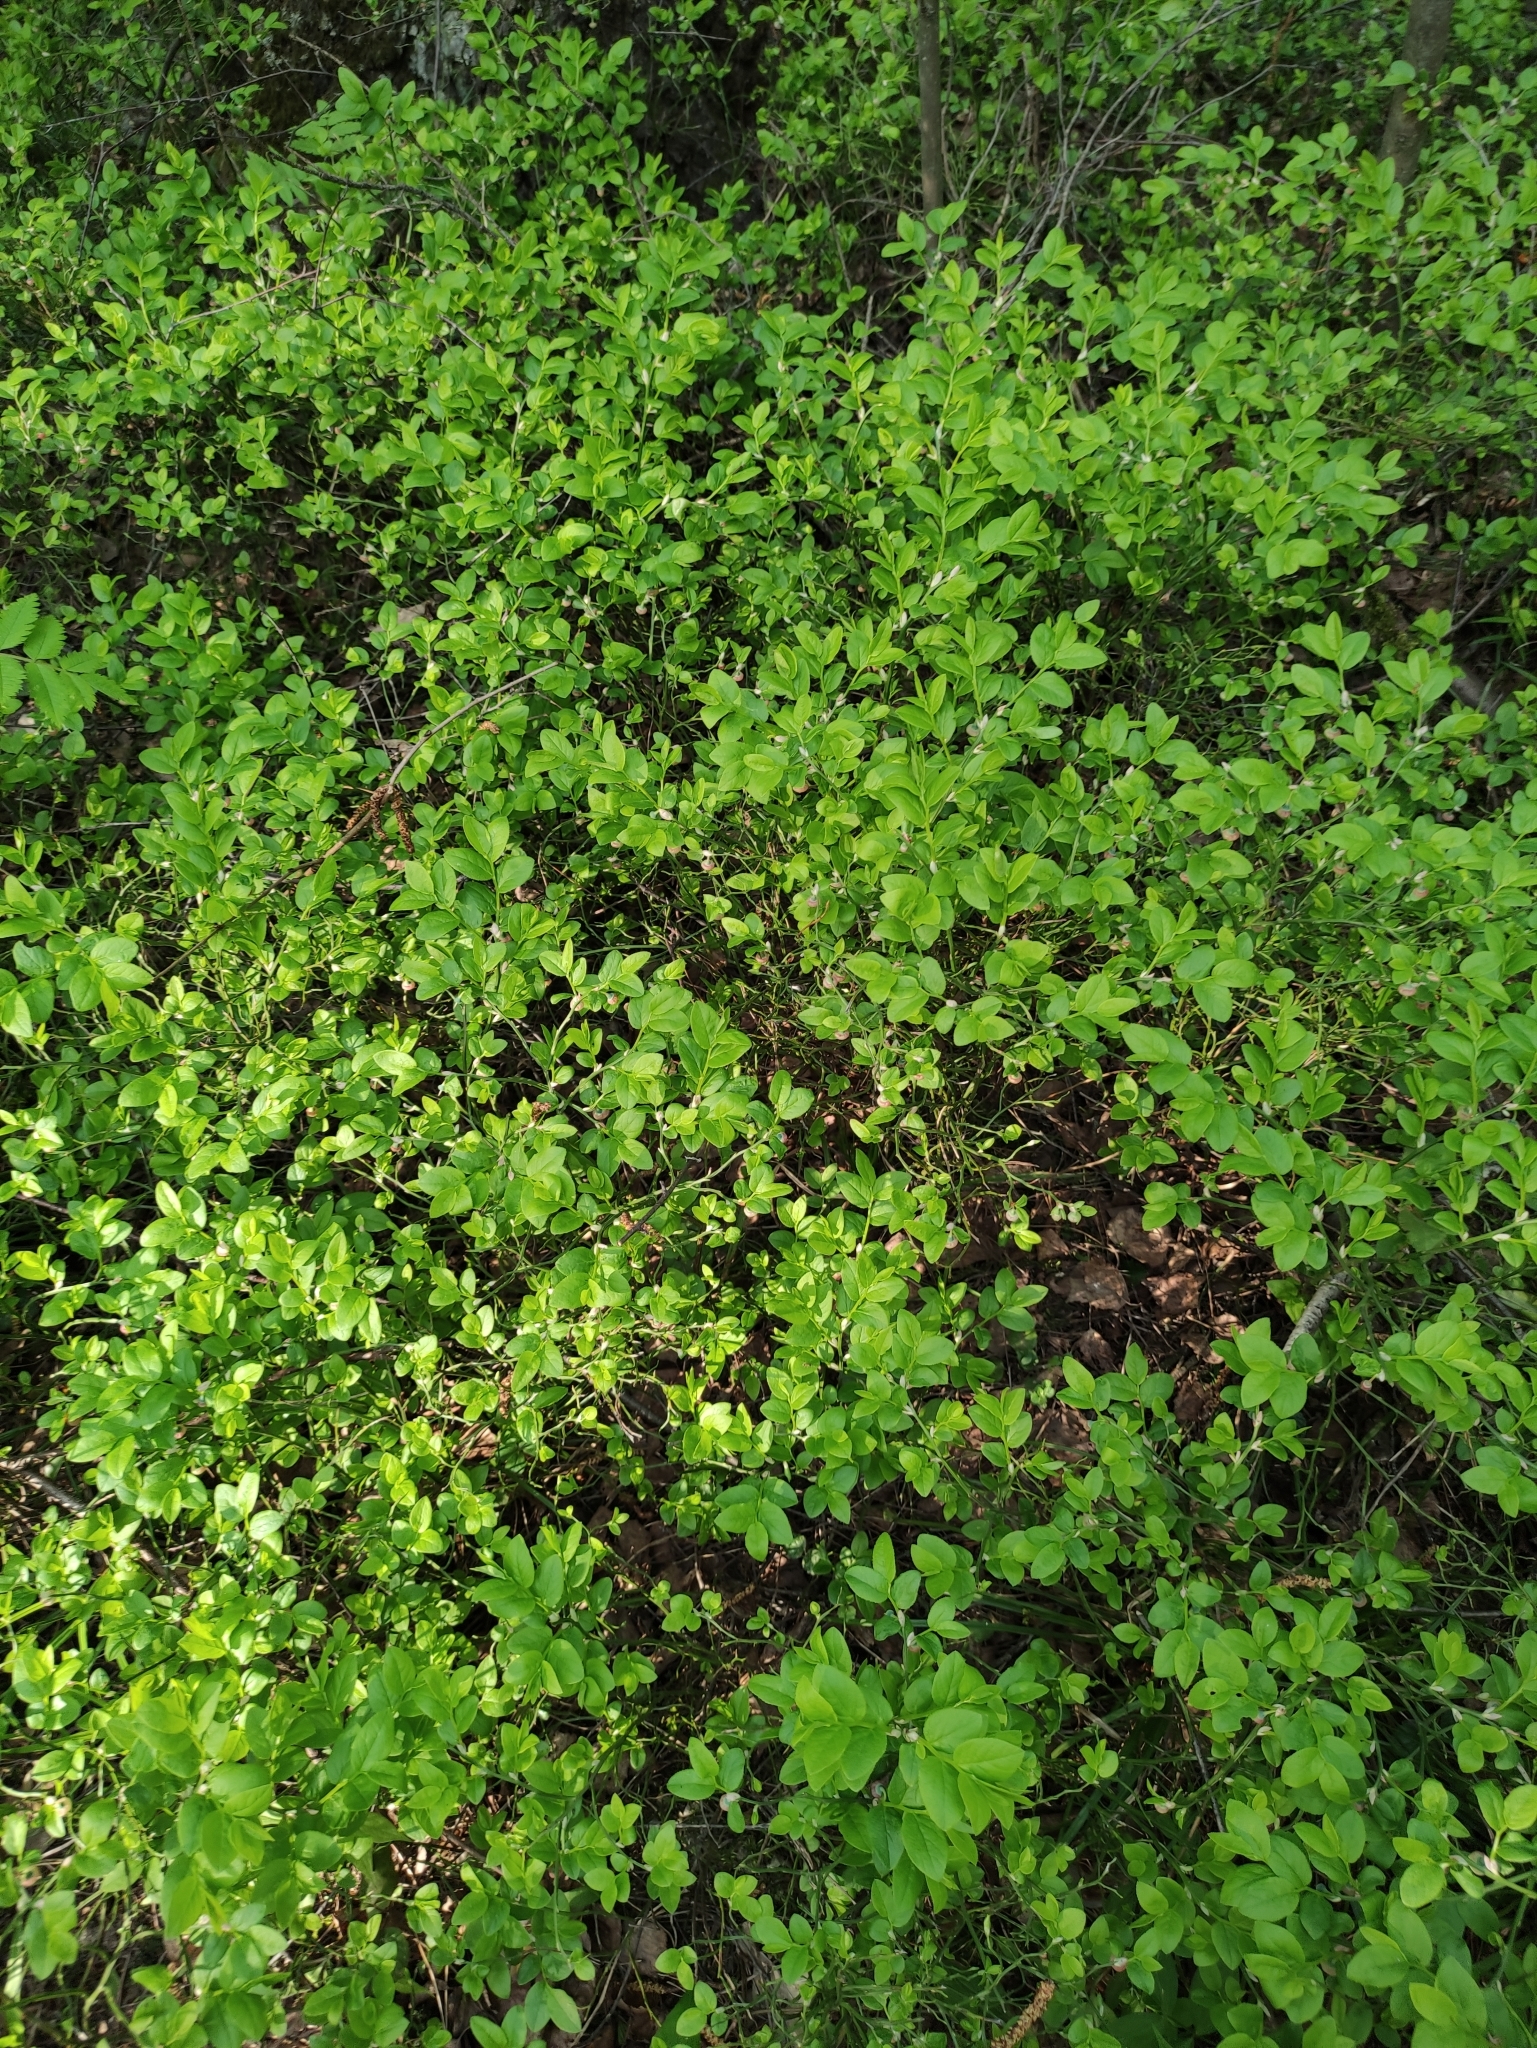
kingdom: Plantae
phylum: Tracheophyta
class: Magnoliopsida
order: Ericales
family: Ericaceae
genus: Vaccinium
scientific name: Vaccinium myrtillus
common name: Bilberry
